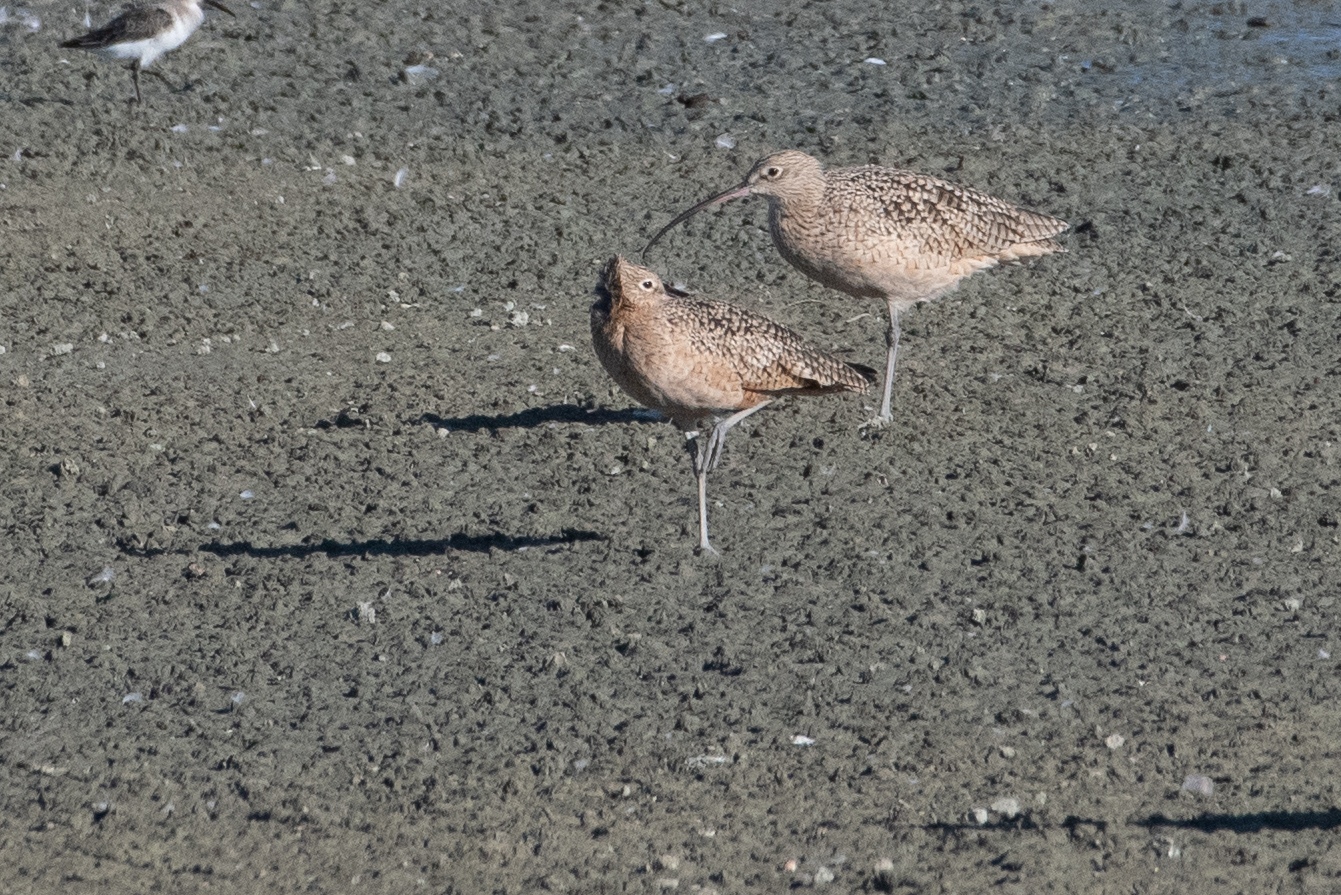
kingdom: Animalia
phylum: Chordata
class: Aves
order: Charadriiformes
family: Scolopacidae
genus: Numenius
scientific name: Numenius americanus
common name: Long-billed curlew
